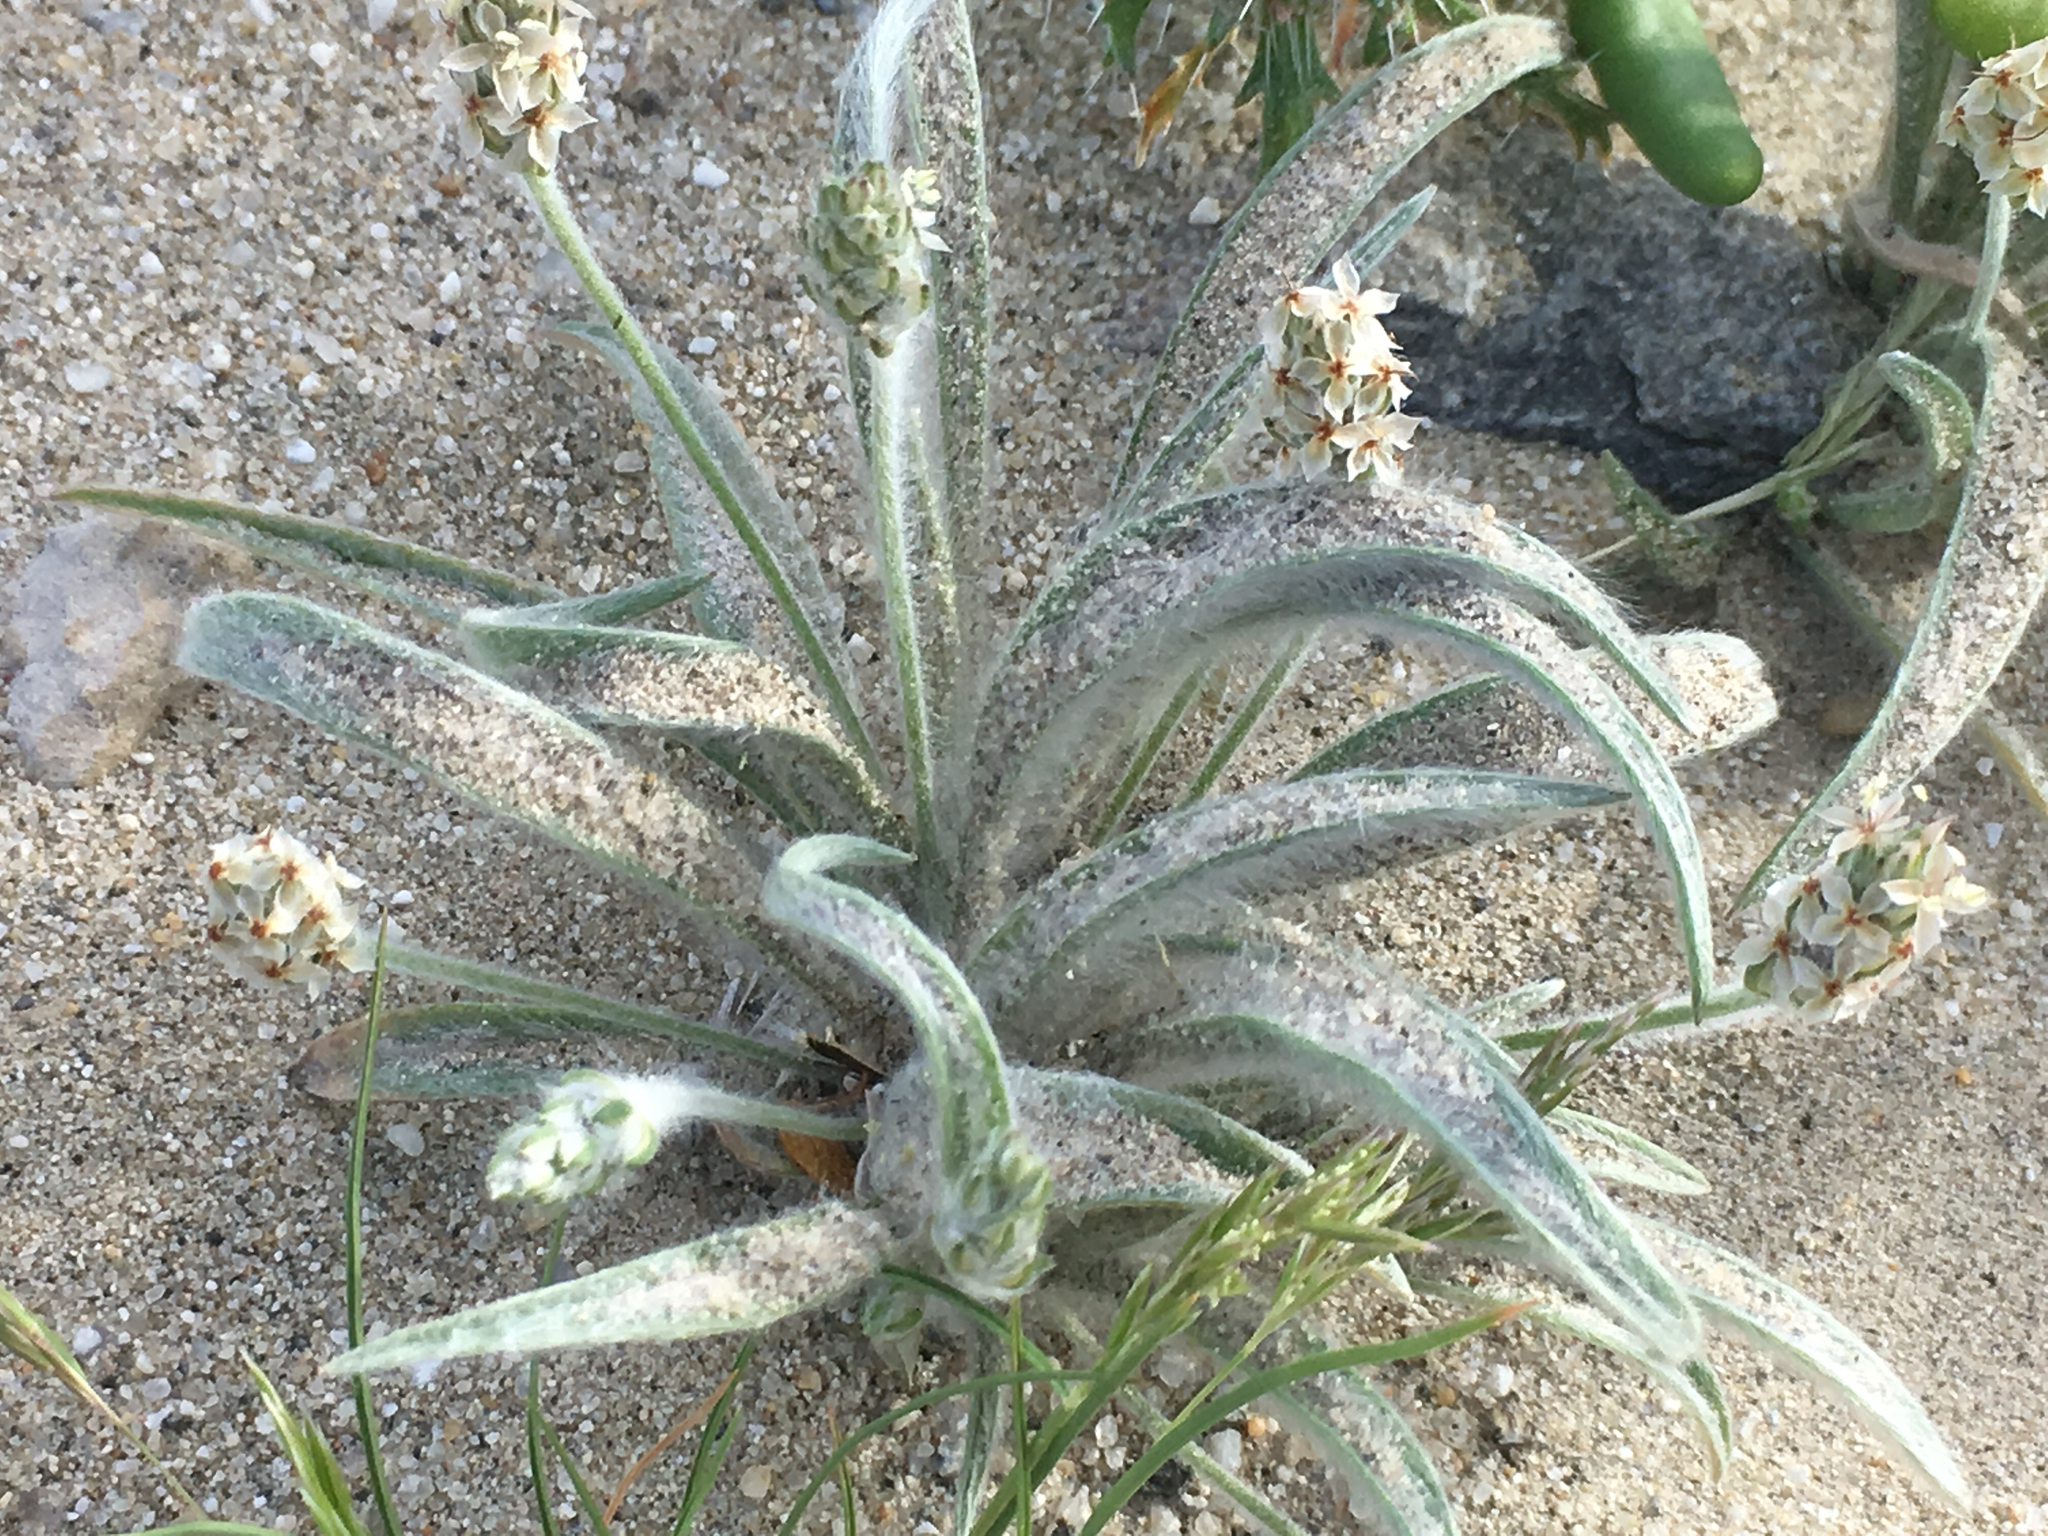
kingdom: Plantae
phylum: Tracheophyta
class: Magnoliopsida
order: Lamiales
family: Plantaginaceae
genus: Plantago
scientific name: Plantago ovata
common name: Blond plantain
